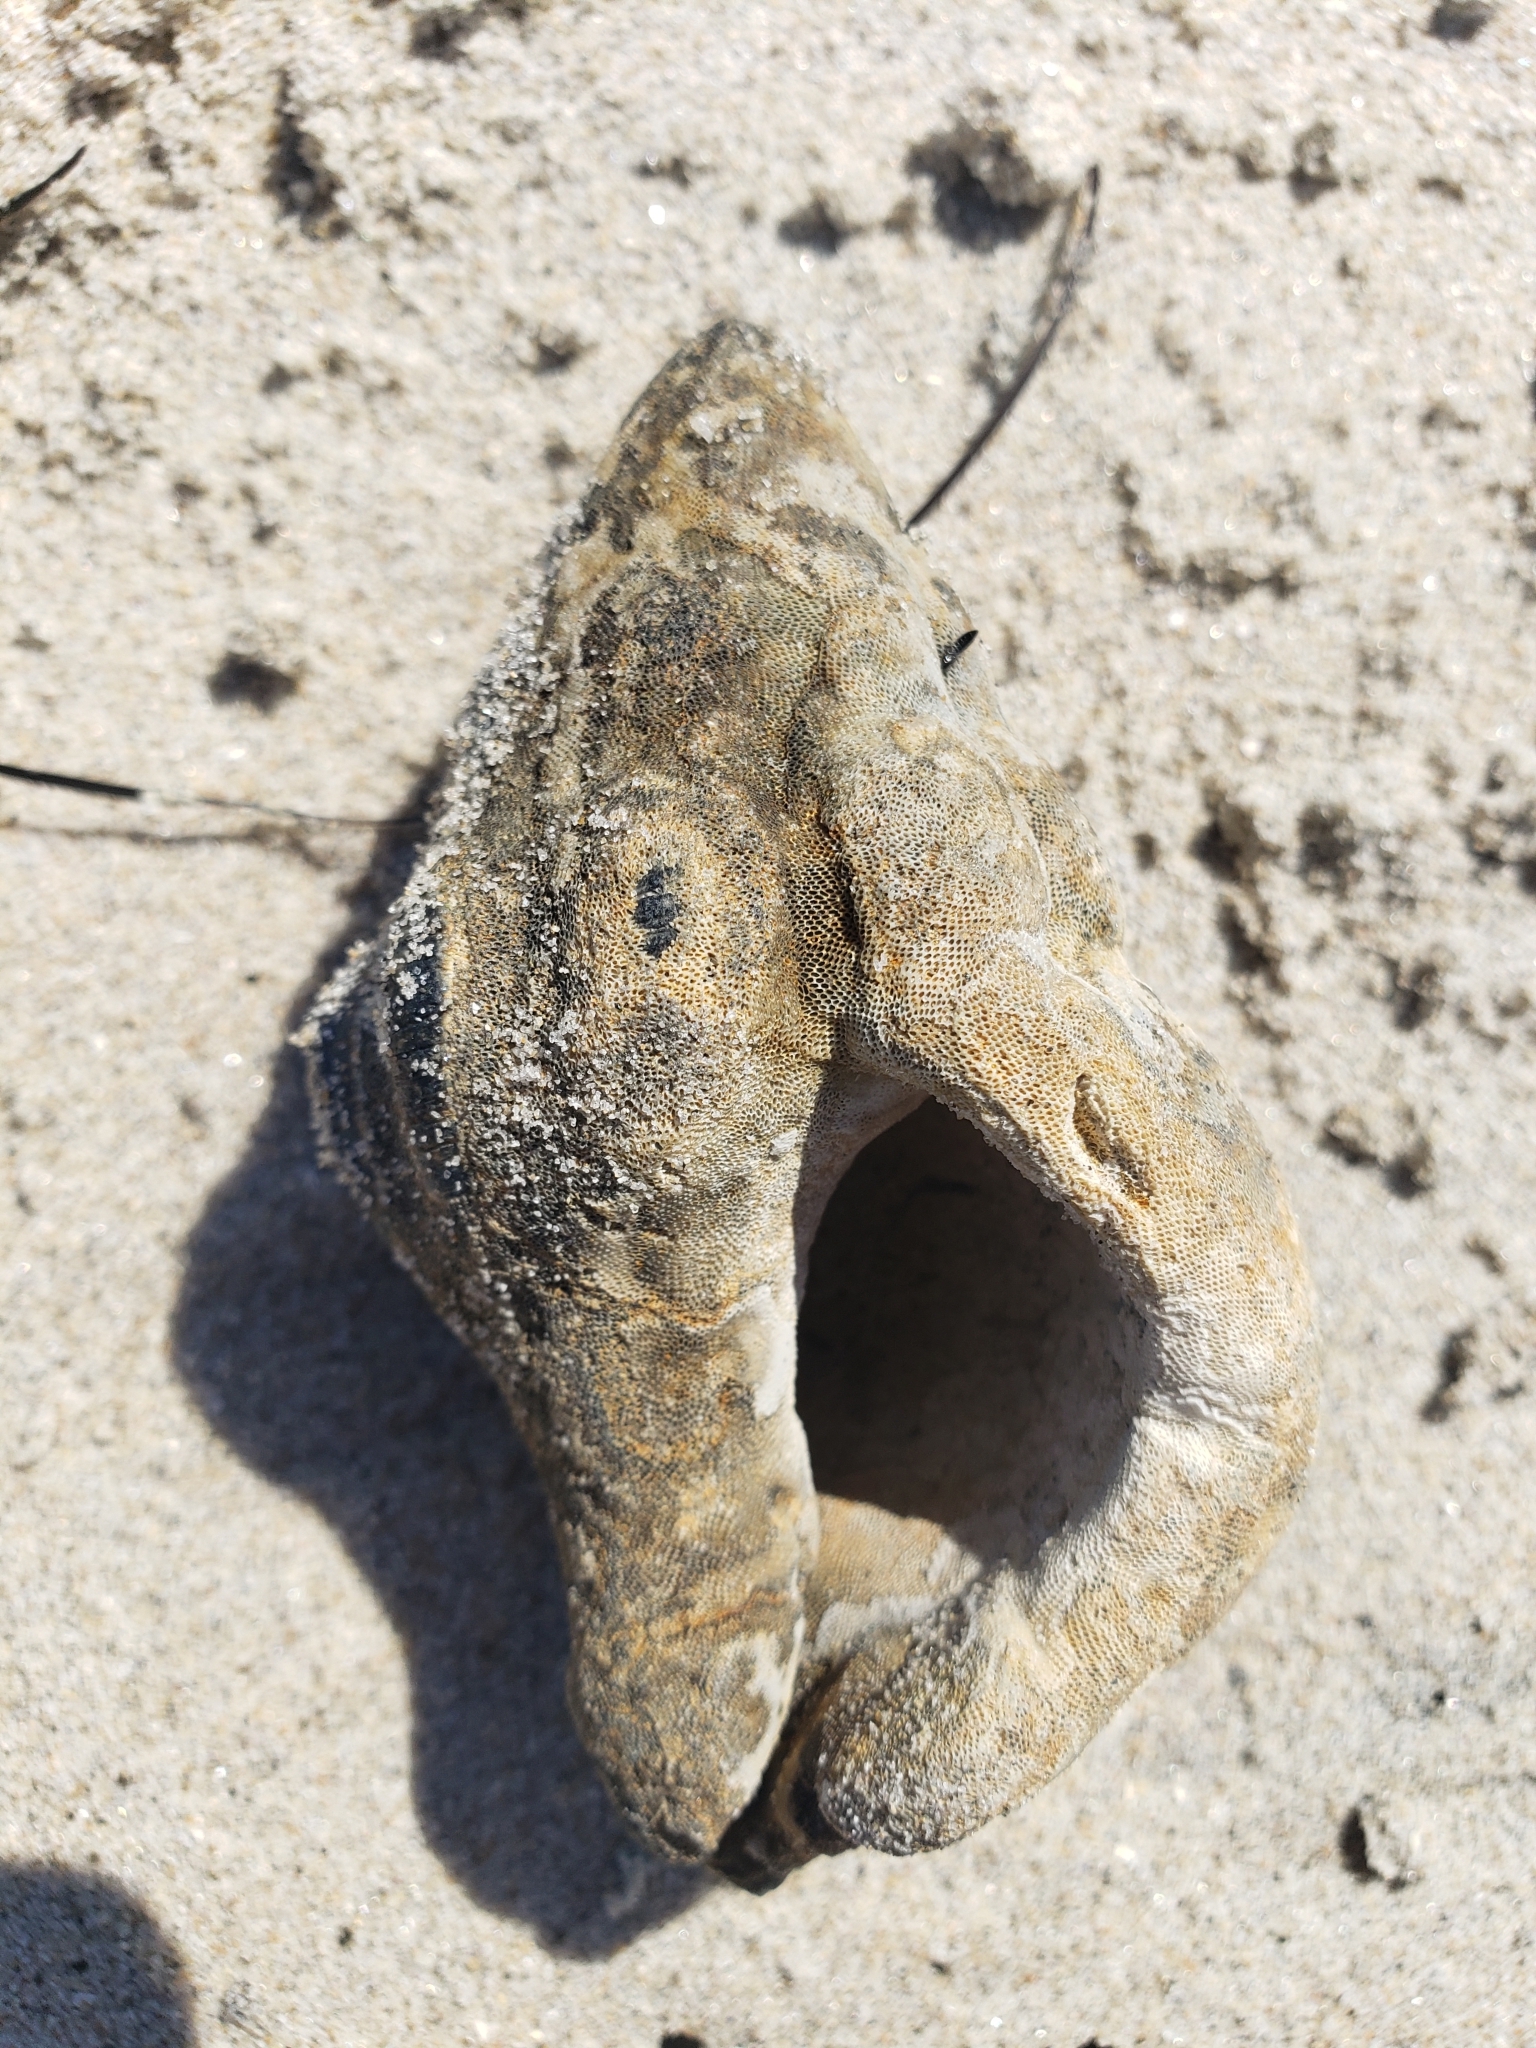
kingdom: Animalia
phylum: Mollusca
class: Gastropoda
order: Neogastropoda
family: Austrosiphonidae
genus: Kelletia
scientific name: Kelletia kelletii
